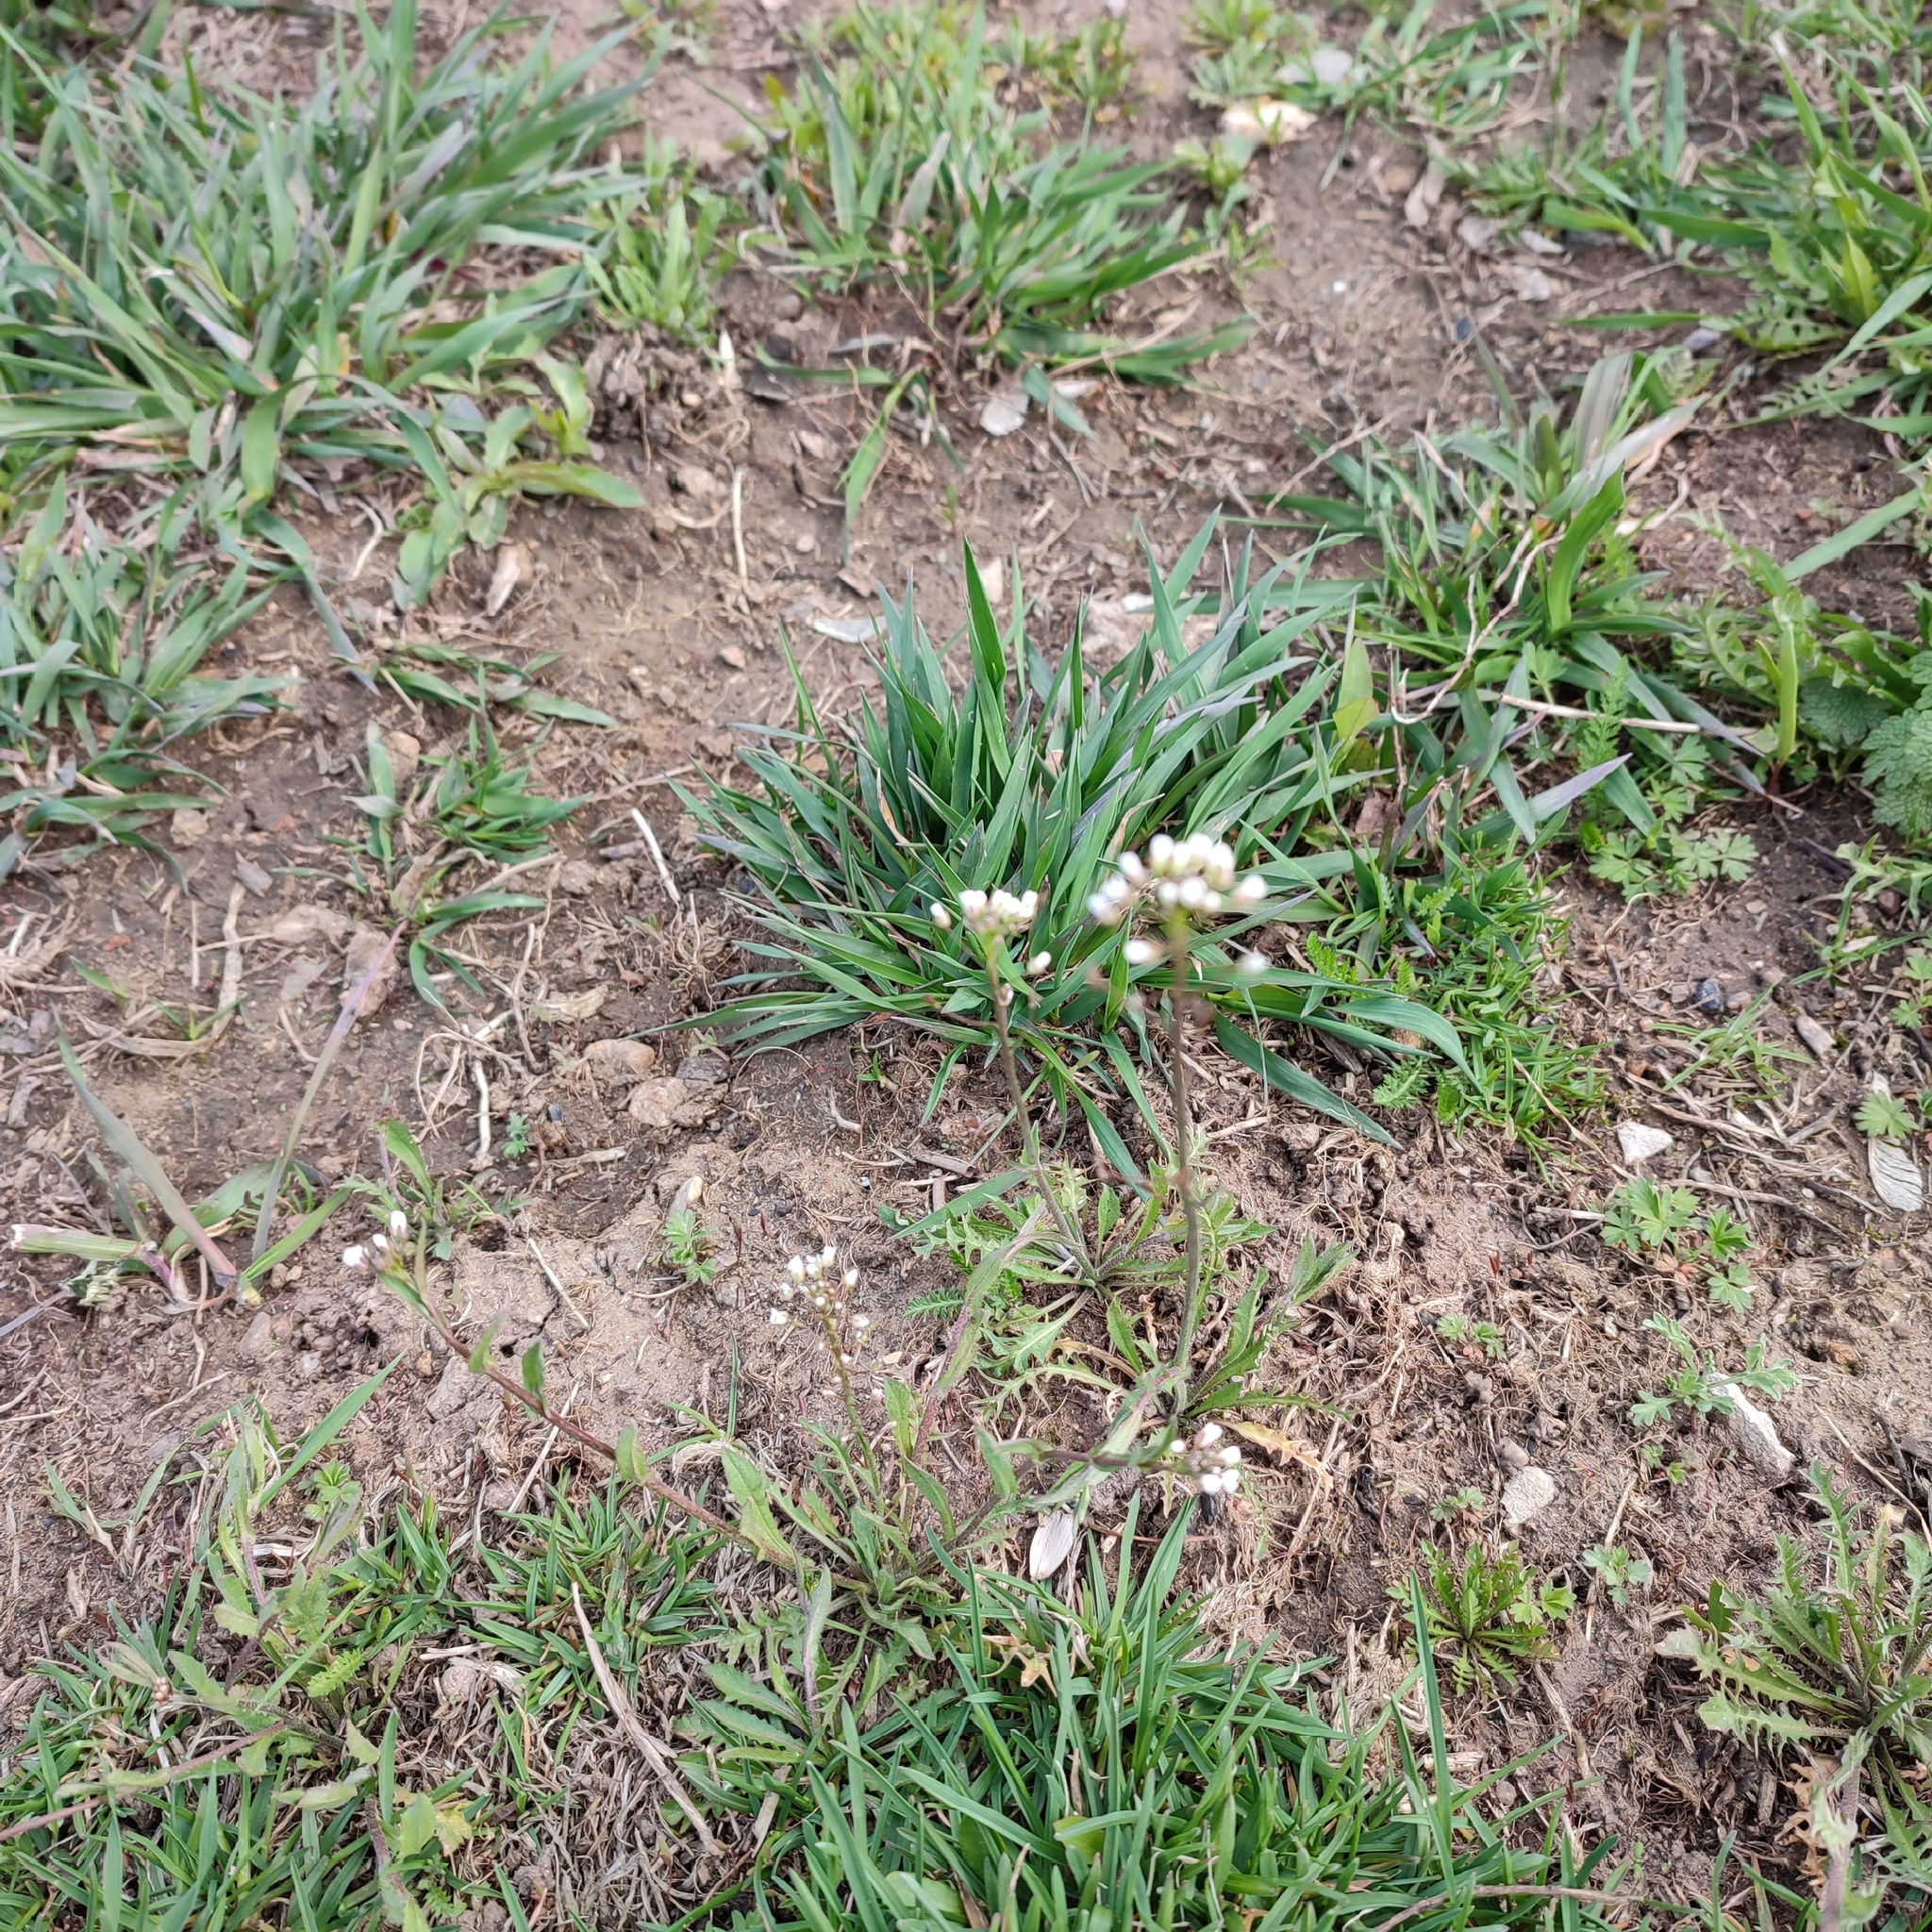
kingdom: Plantae
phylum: Tracheophyta
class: Magnoliopsida
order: Brassicales
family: Brassicaceae
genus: Capsella
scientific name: Capsella bursa-pastoris
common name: Shepherd's purse
